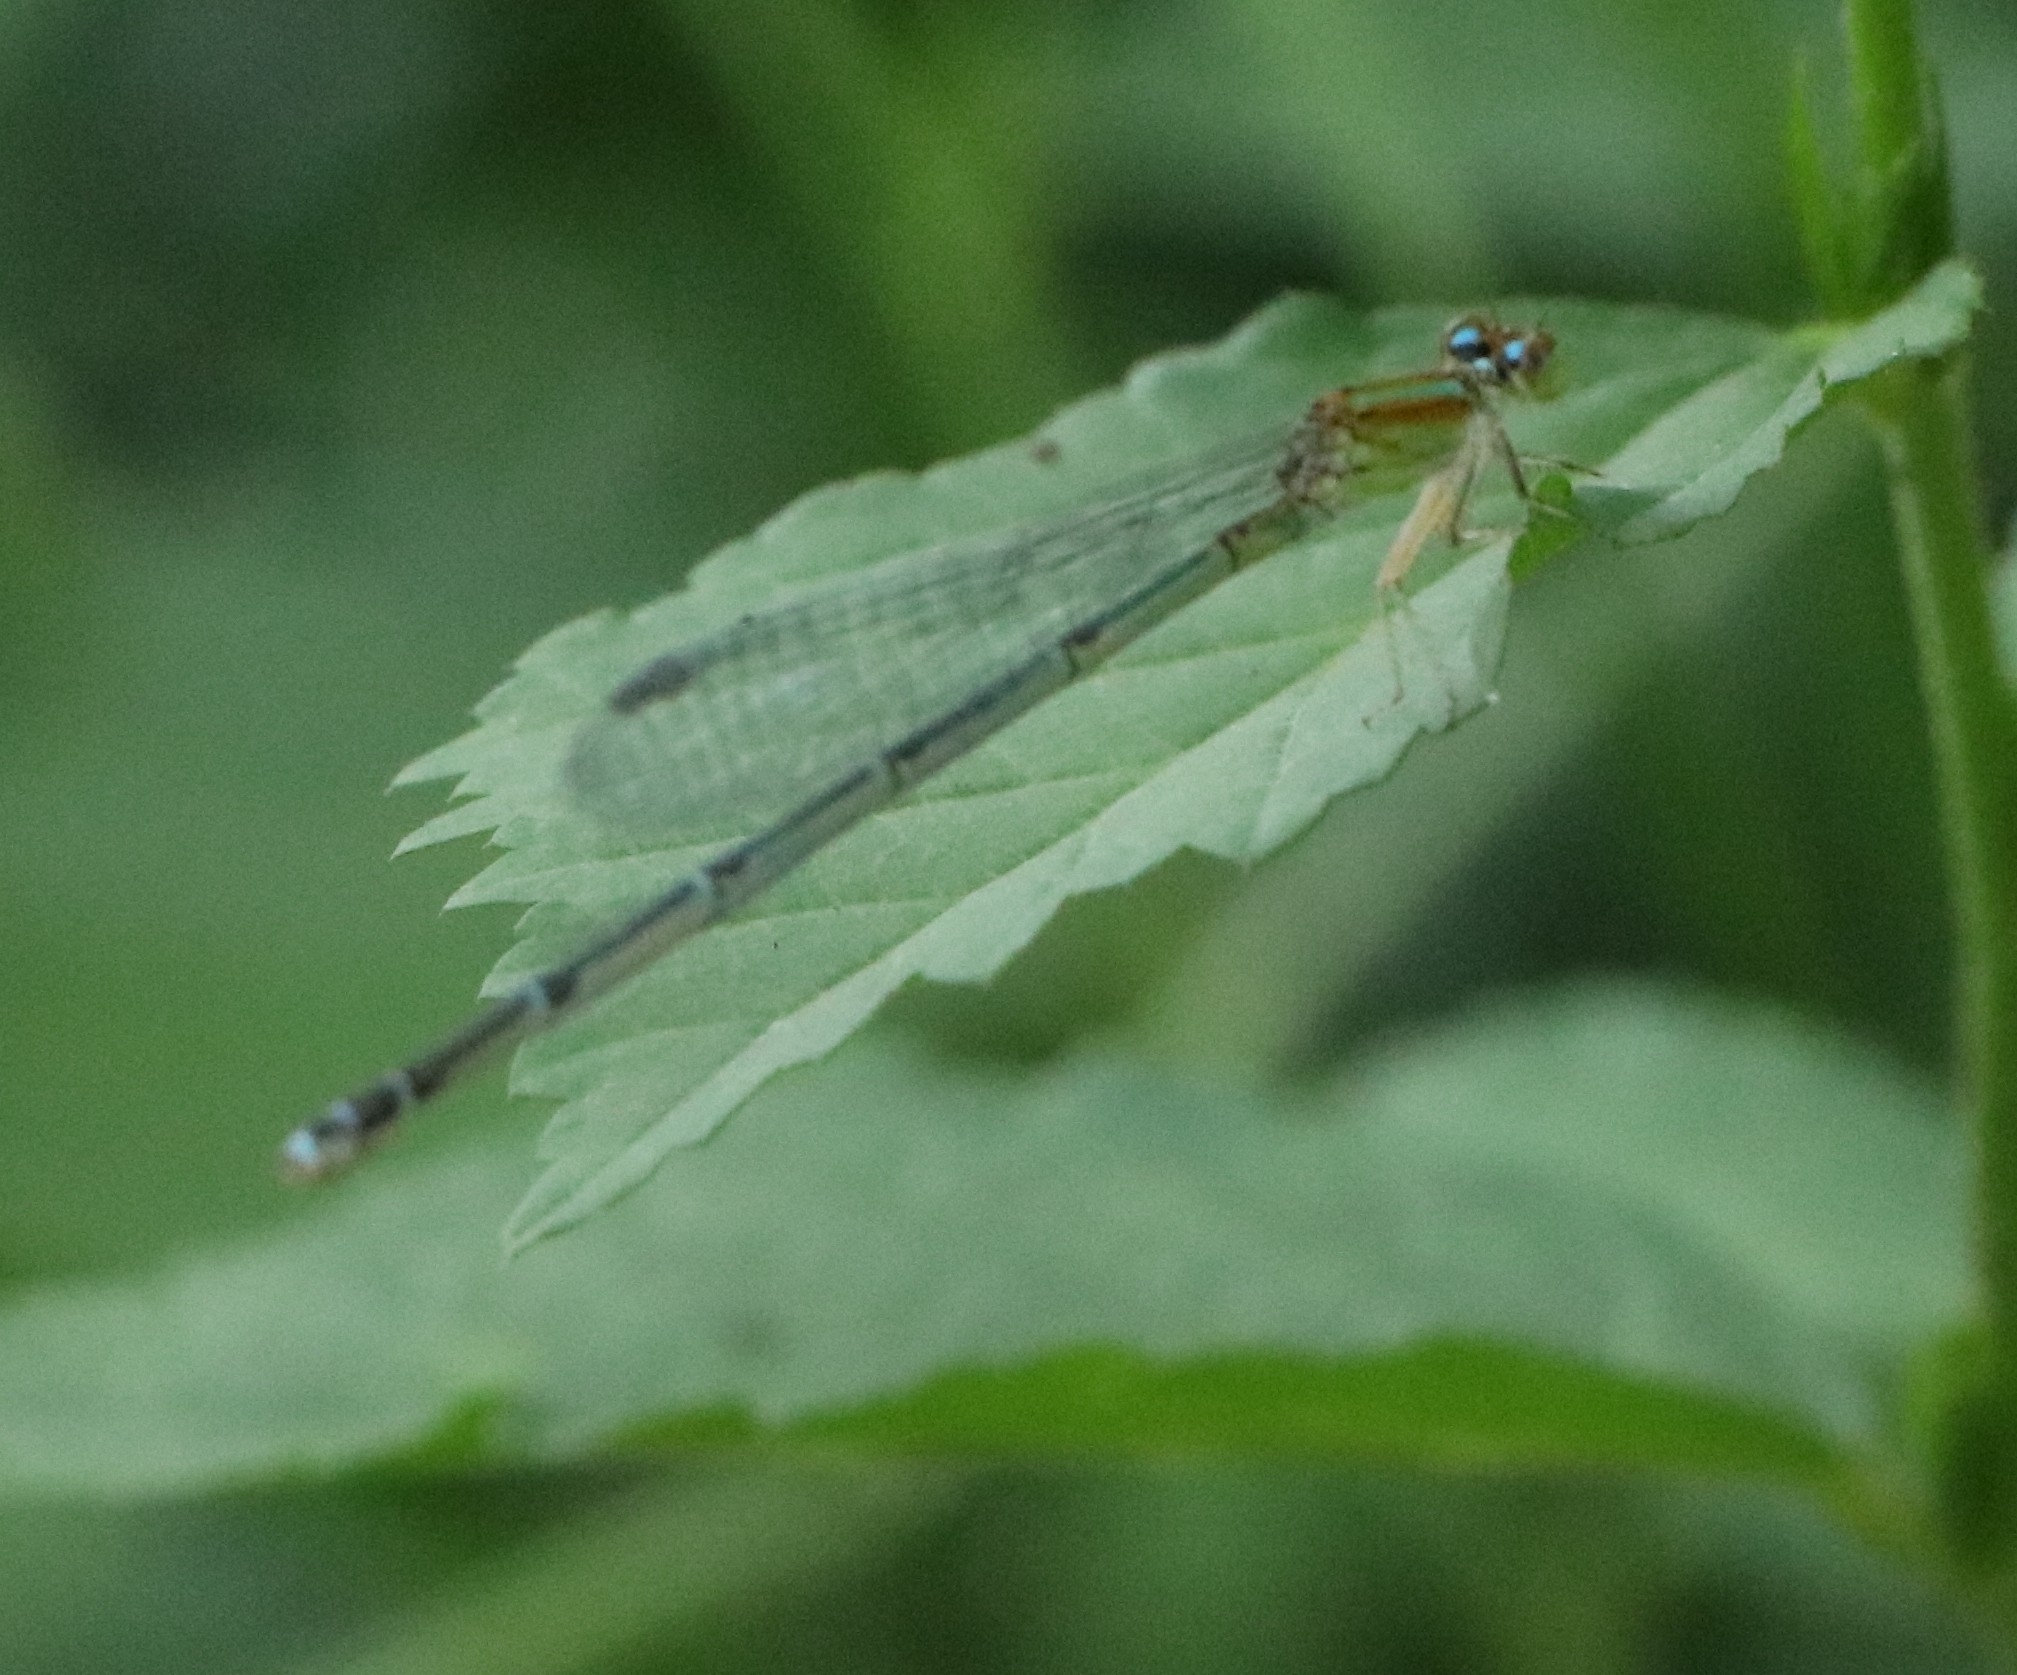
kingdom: Animalia
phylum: Arthropoda
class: Insecta
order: Odonata
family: Coenagrionidae
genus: Pseudagrion
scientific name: Pseudagrion microcephalum
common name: Blue riverdamsel
